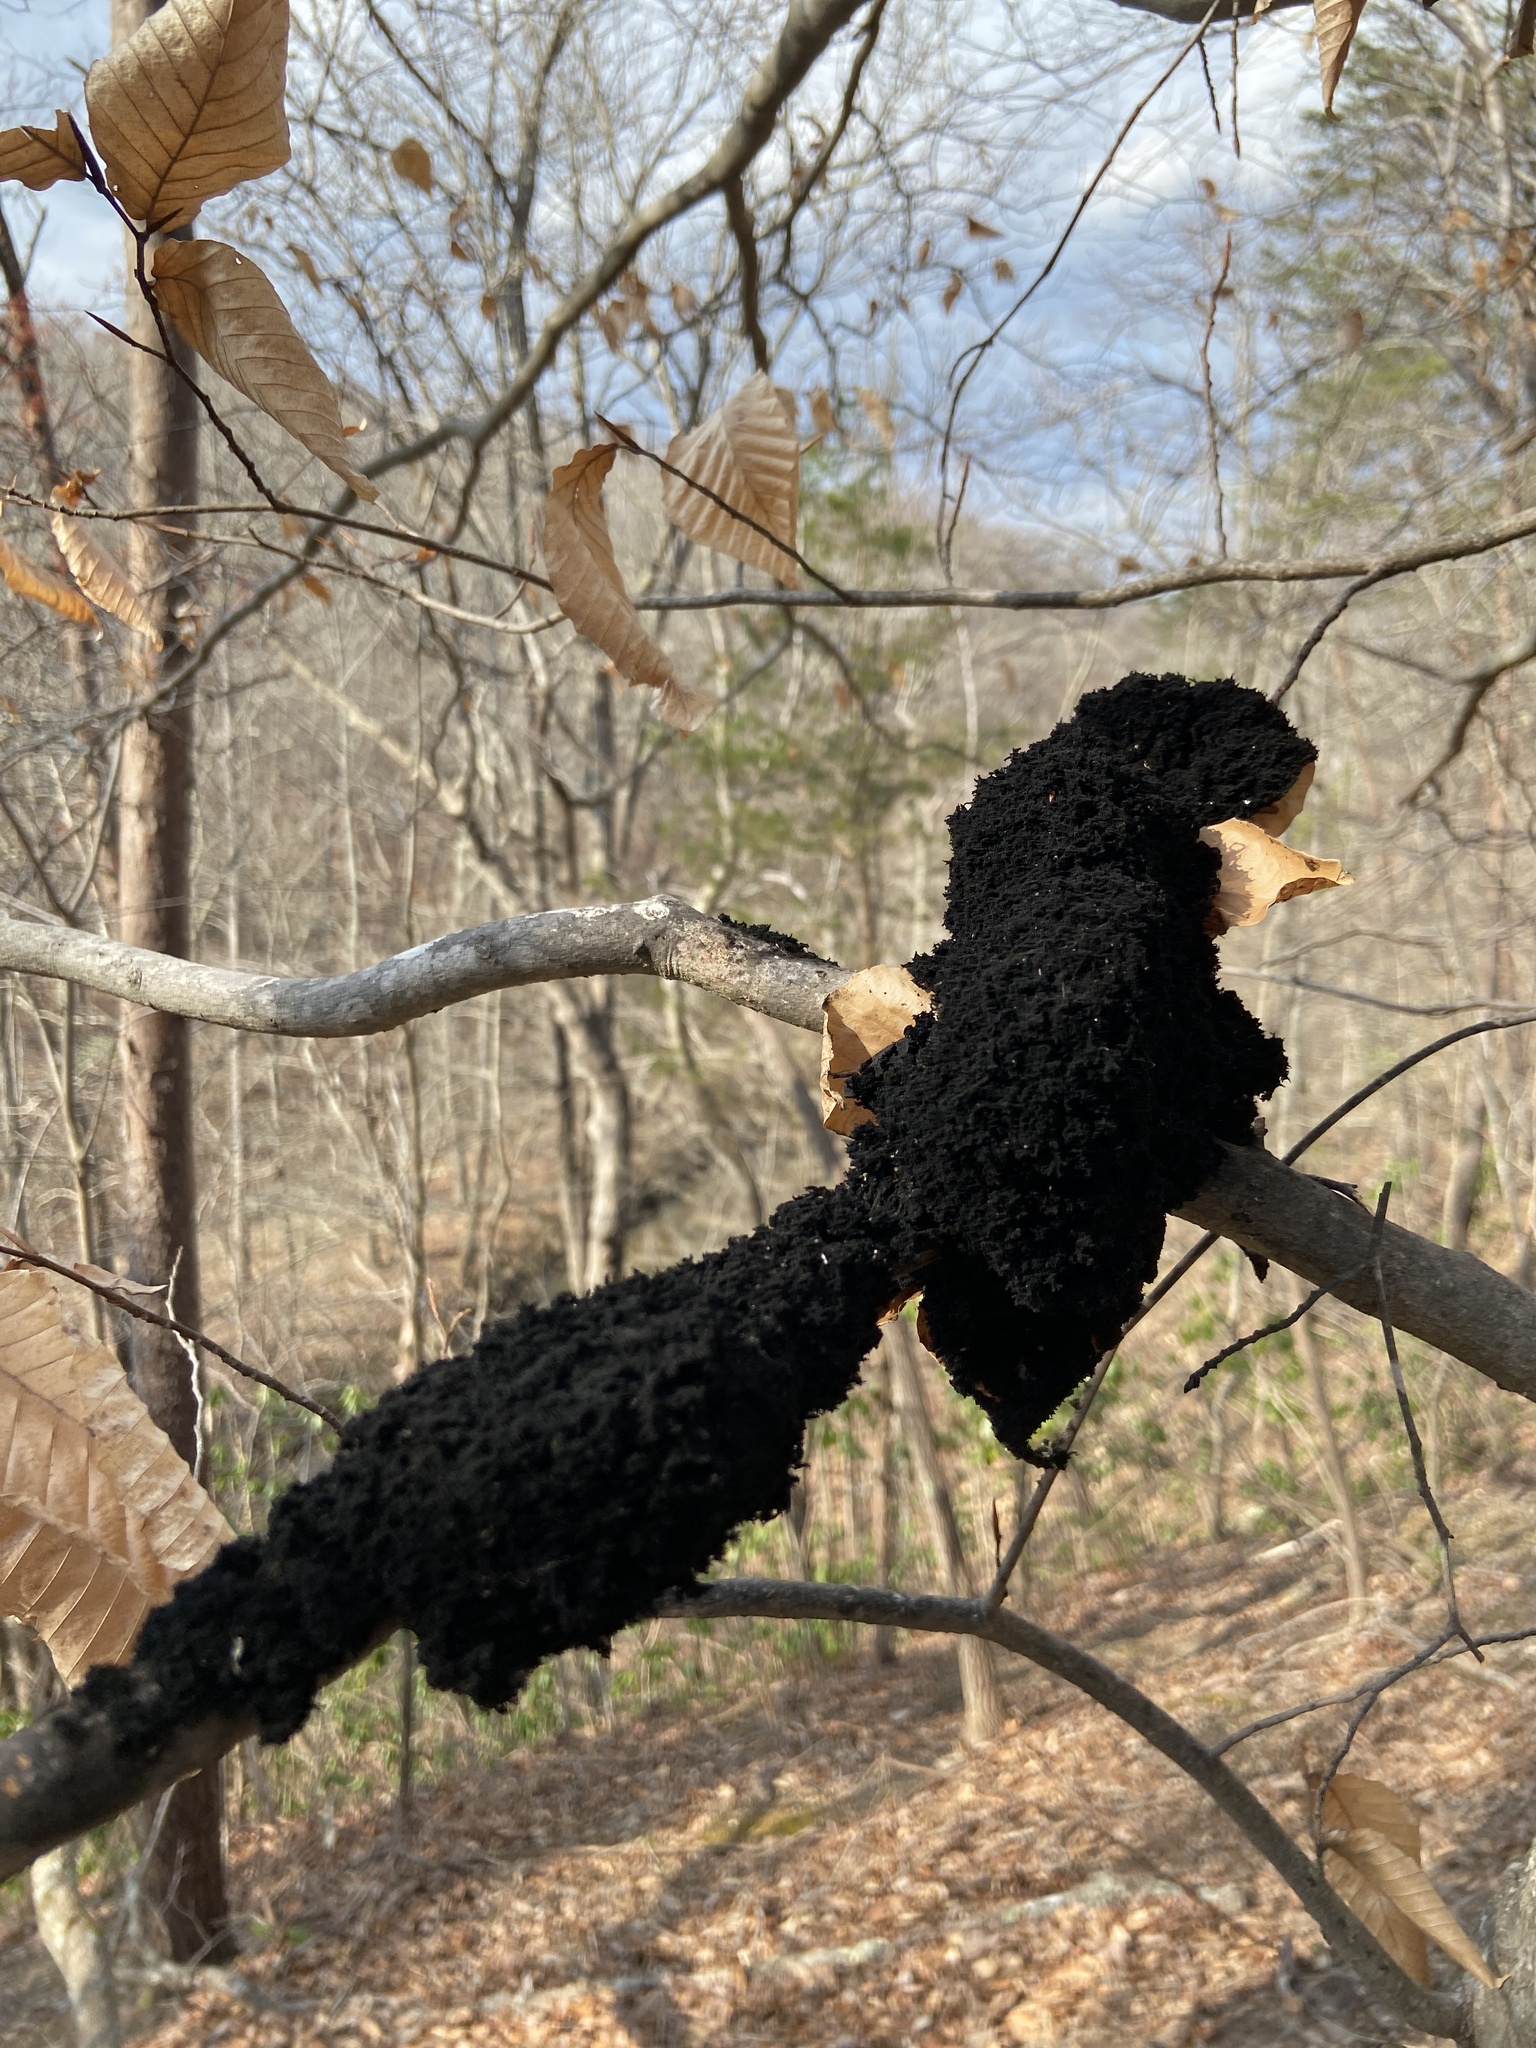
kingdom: Fungi
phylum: Ascomycota
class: Dothideomycetes
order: Capnodiales
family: Capnodiaceae
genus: Scorias
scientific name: Scorias spongiosa
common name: Black sooty mold
